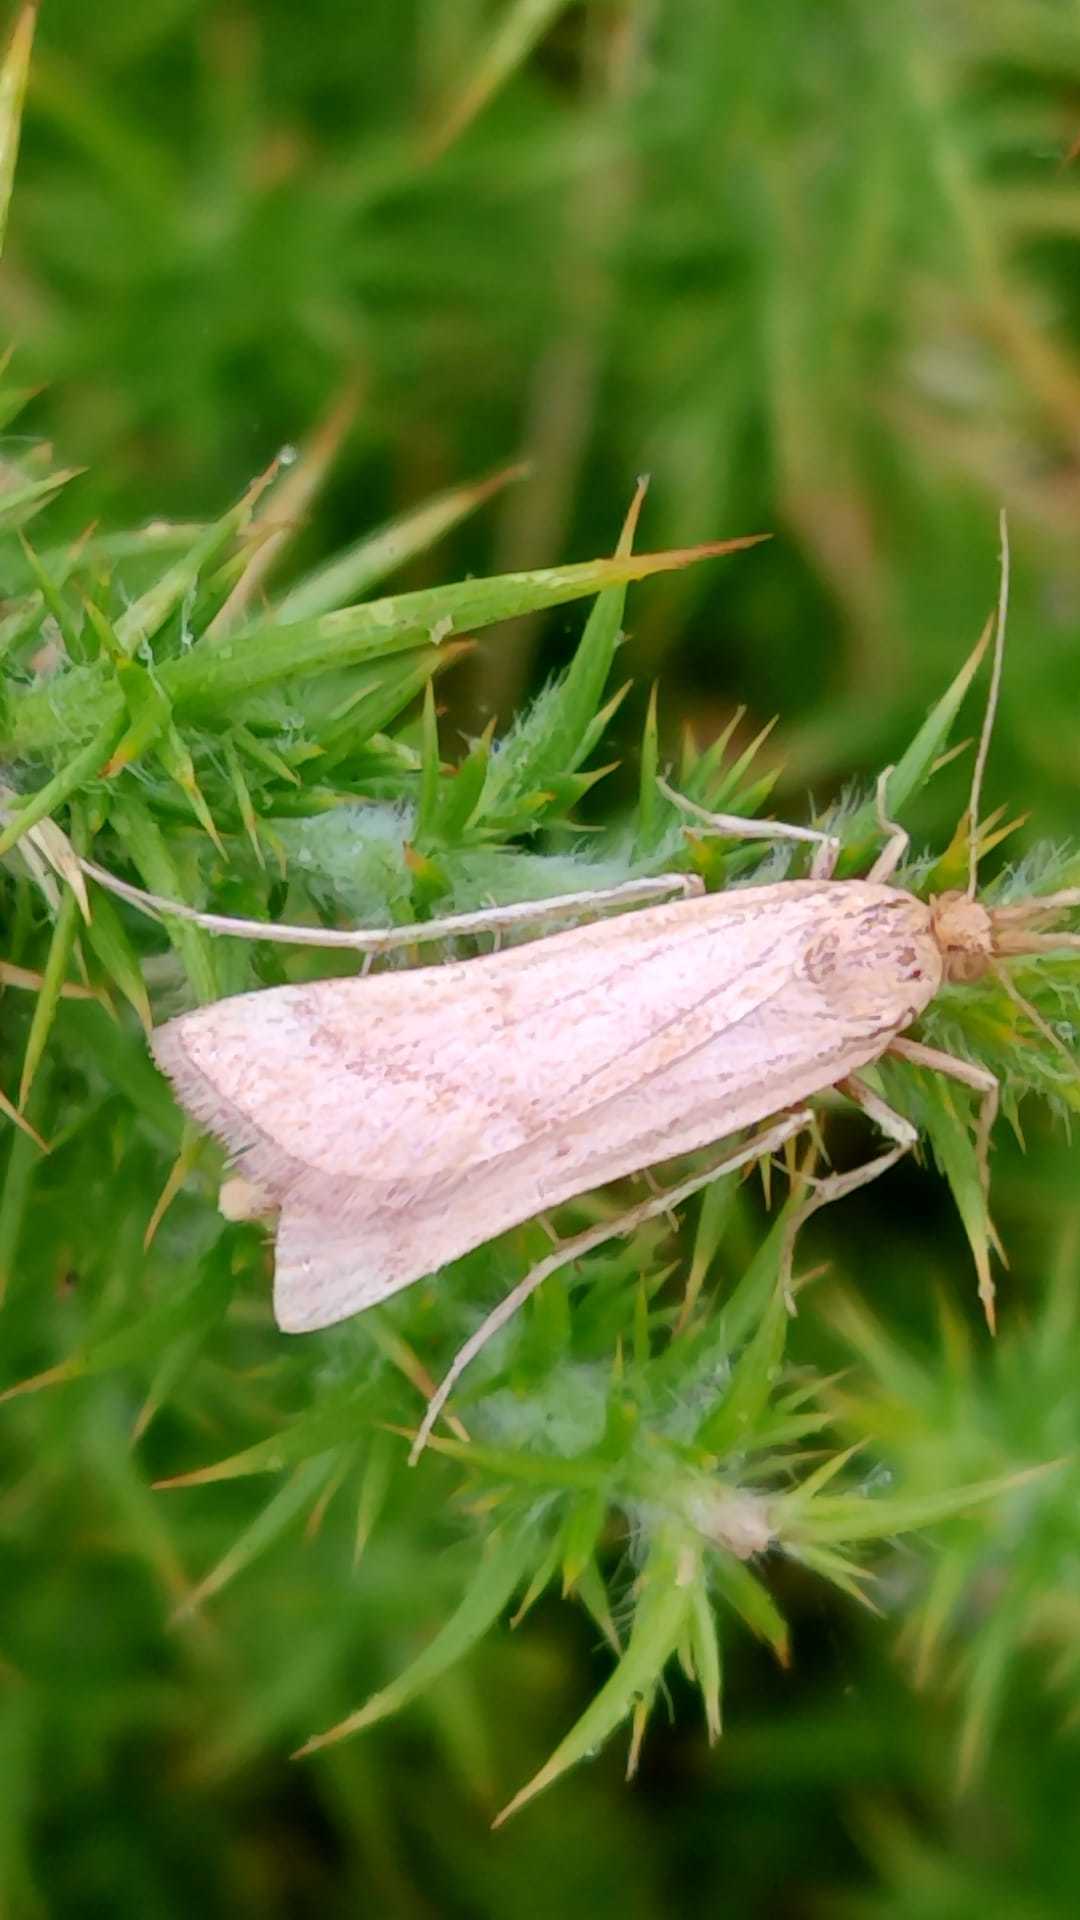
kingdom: Animalia
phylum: Arthropoda
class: Insecta
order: Lepidoptera
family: Pyralidae
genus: Synaphe
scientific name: Synaphe punctalis
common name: Long-legged tabby
